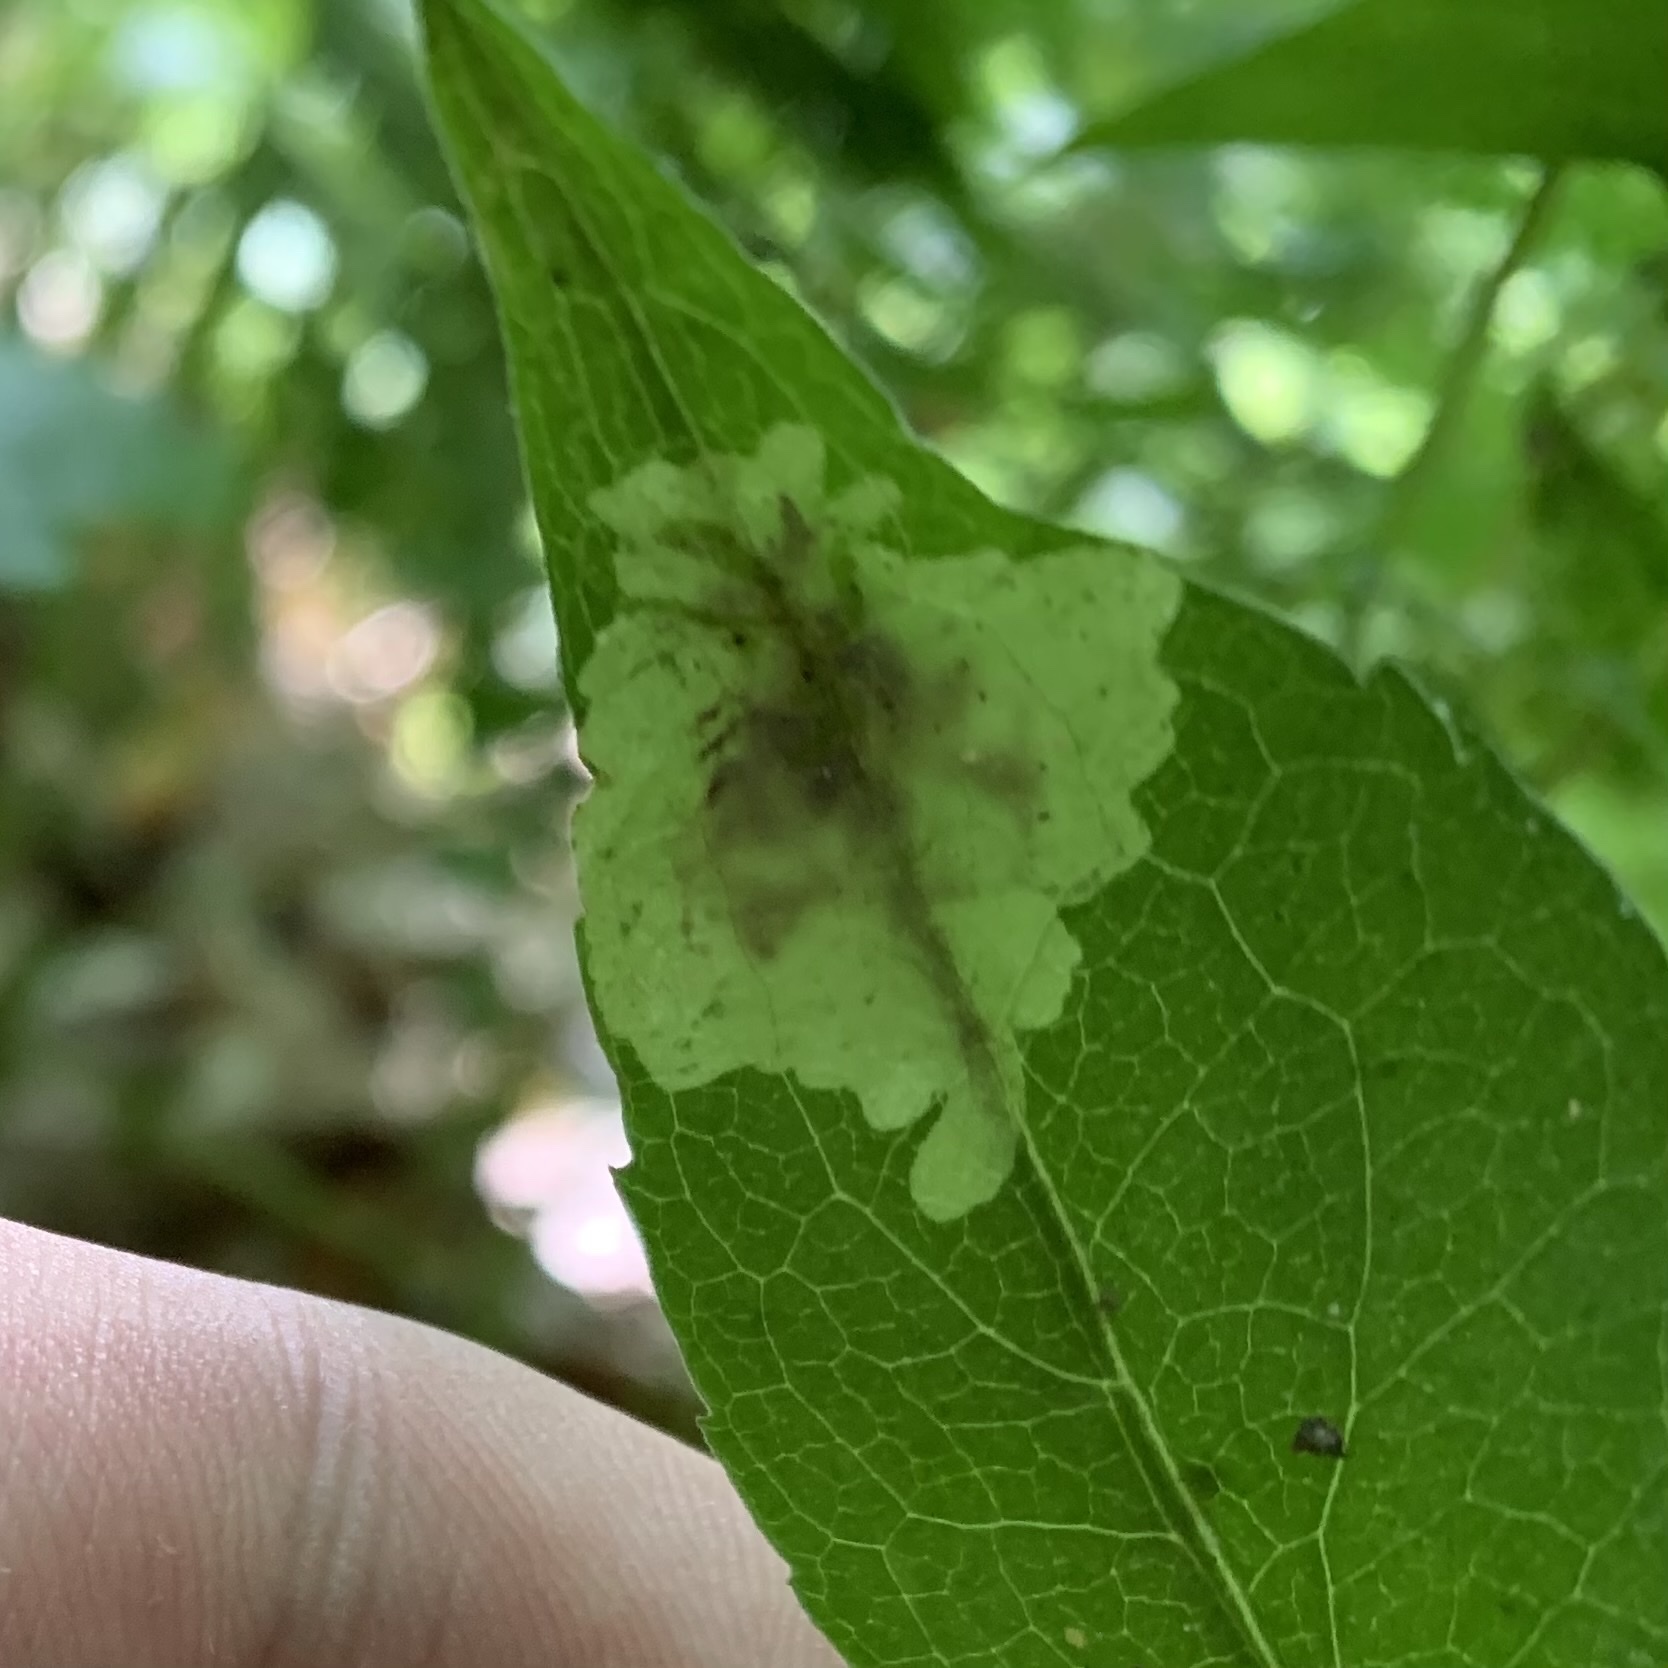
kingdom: Animalia
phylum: Arthropoda
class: Insecta
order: Diptera
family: Agromyzidae
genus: Calycomyza
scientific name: Calycomyza promissa
